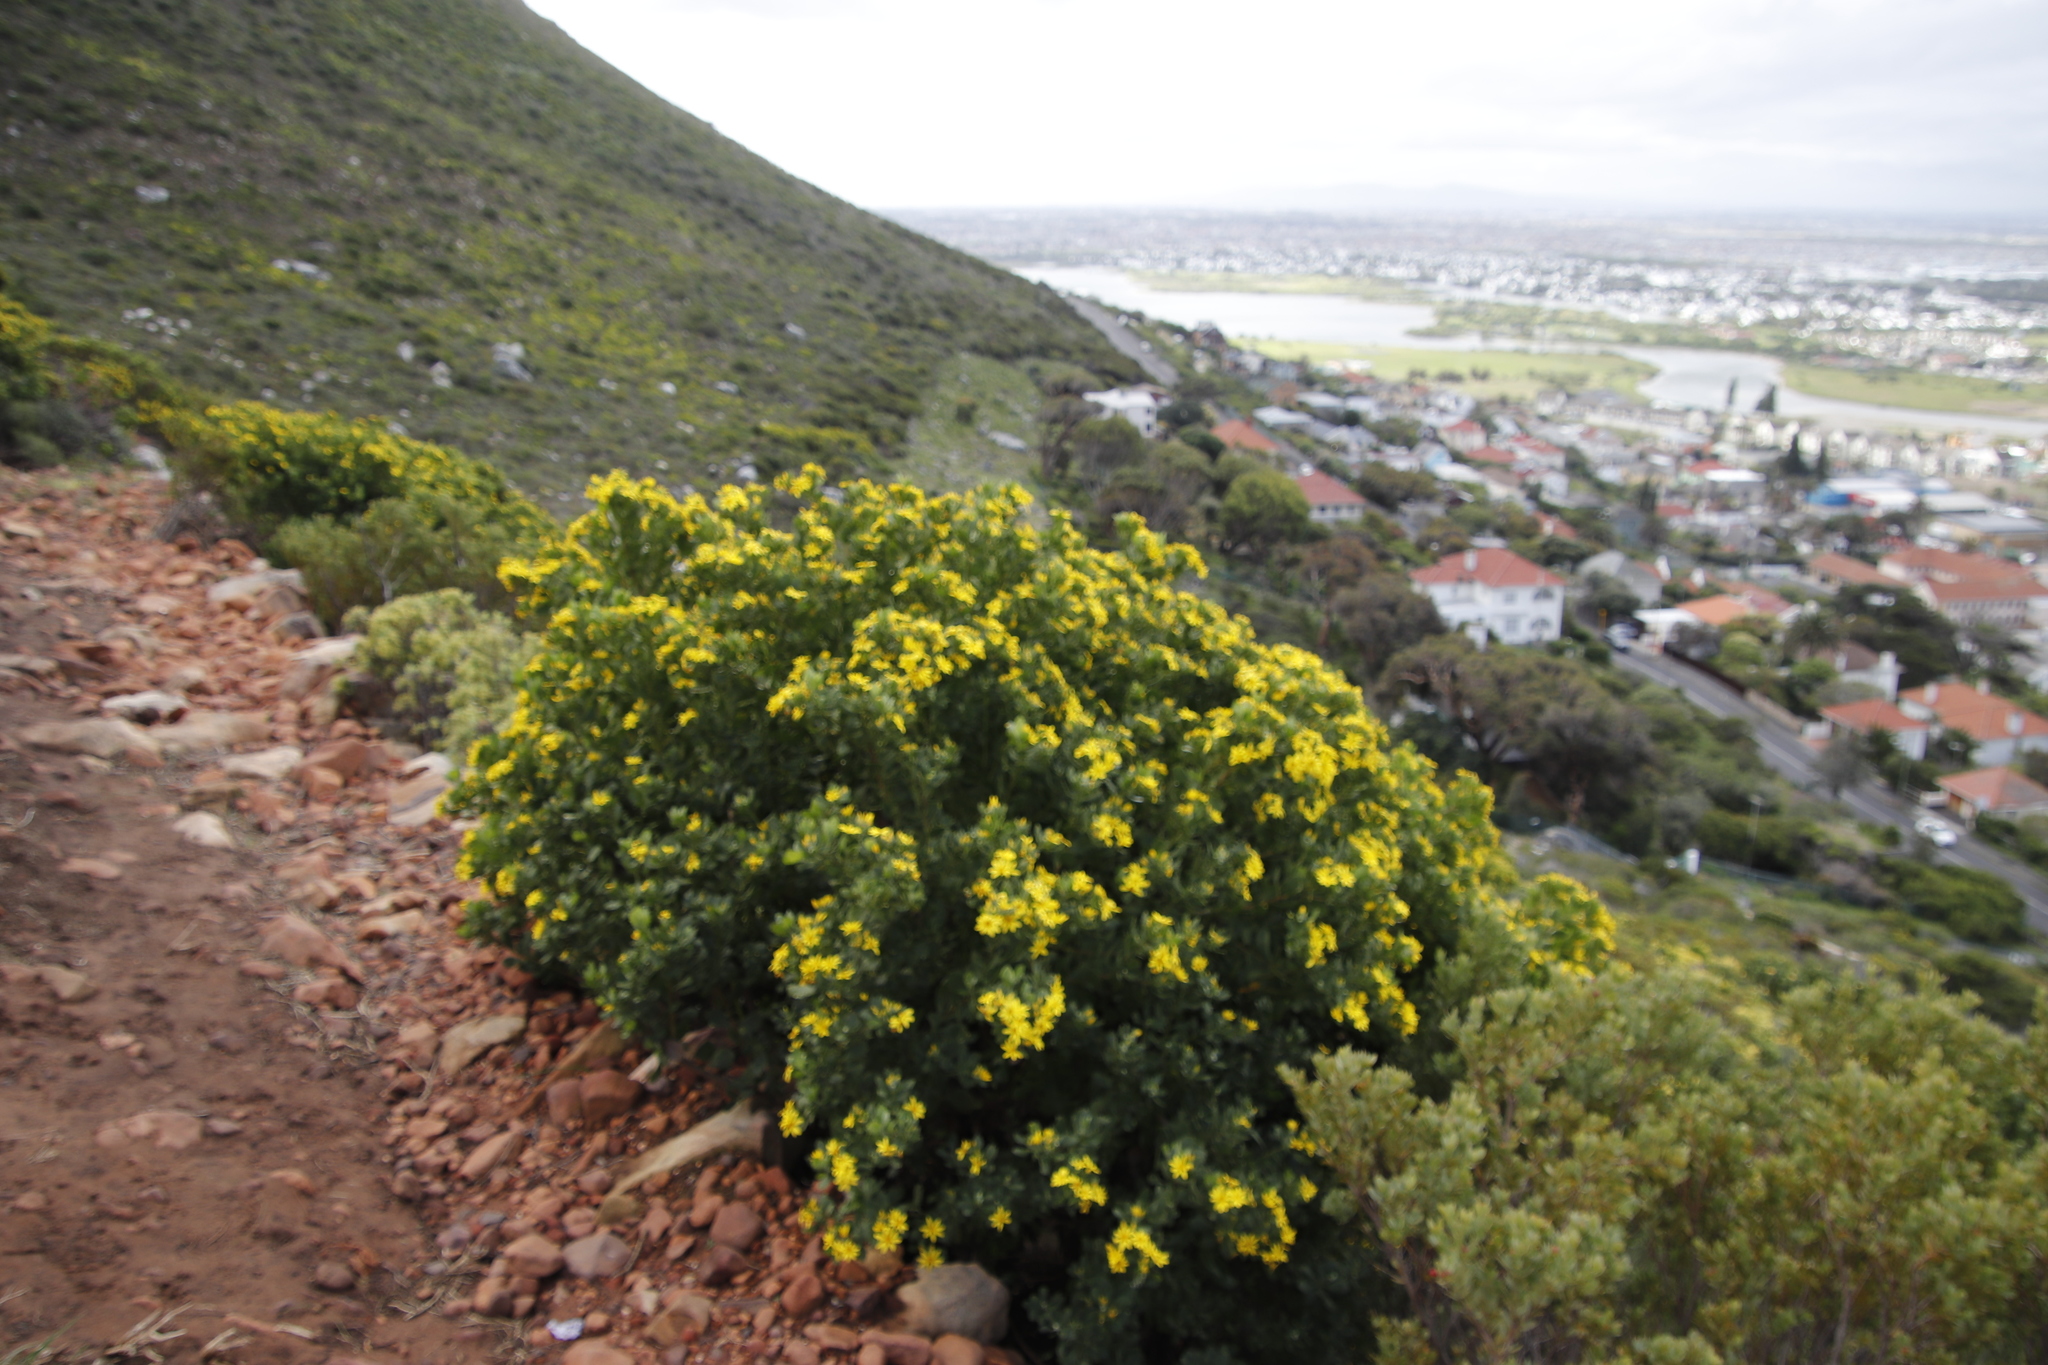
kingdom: Plantae
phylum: Tracheophyta
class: Magnoliopsida
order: Asterales
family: Asteraceae
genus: Osteospermum
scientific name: Osteospermum moniliferum
